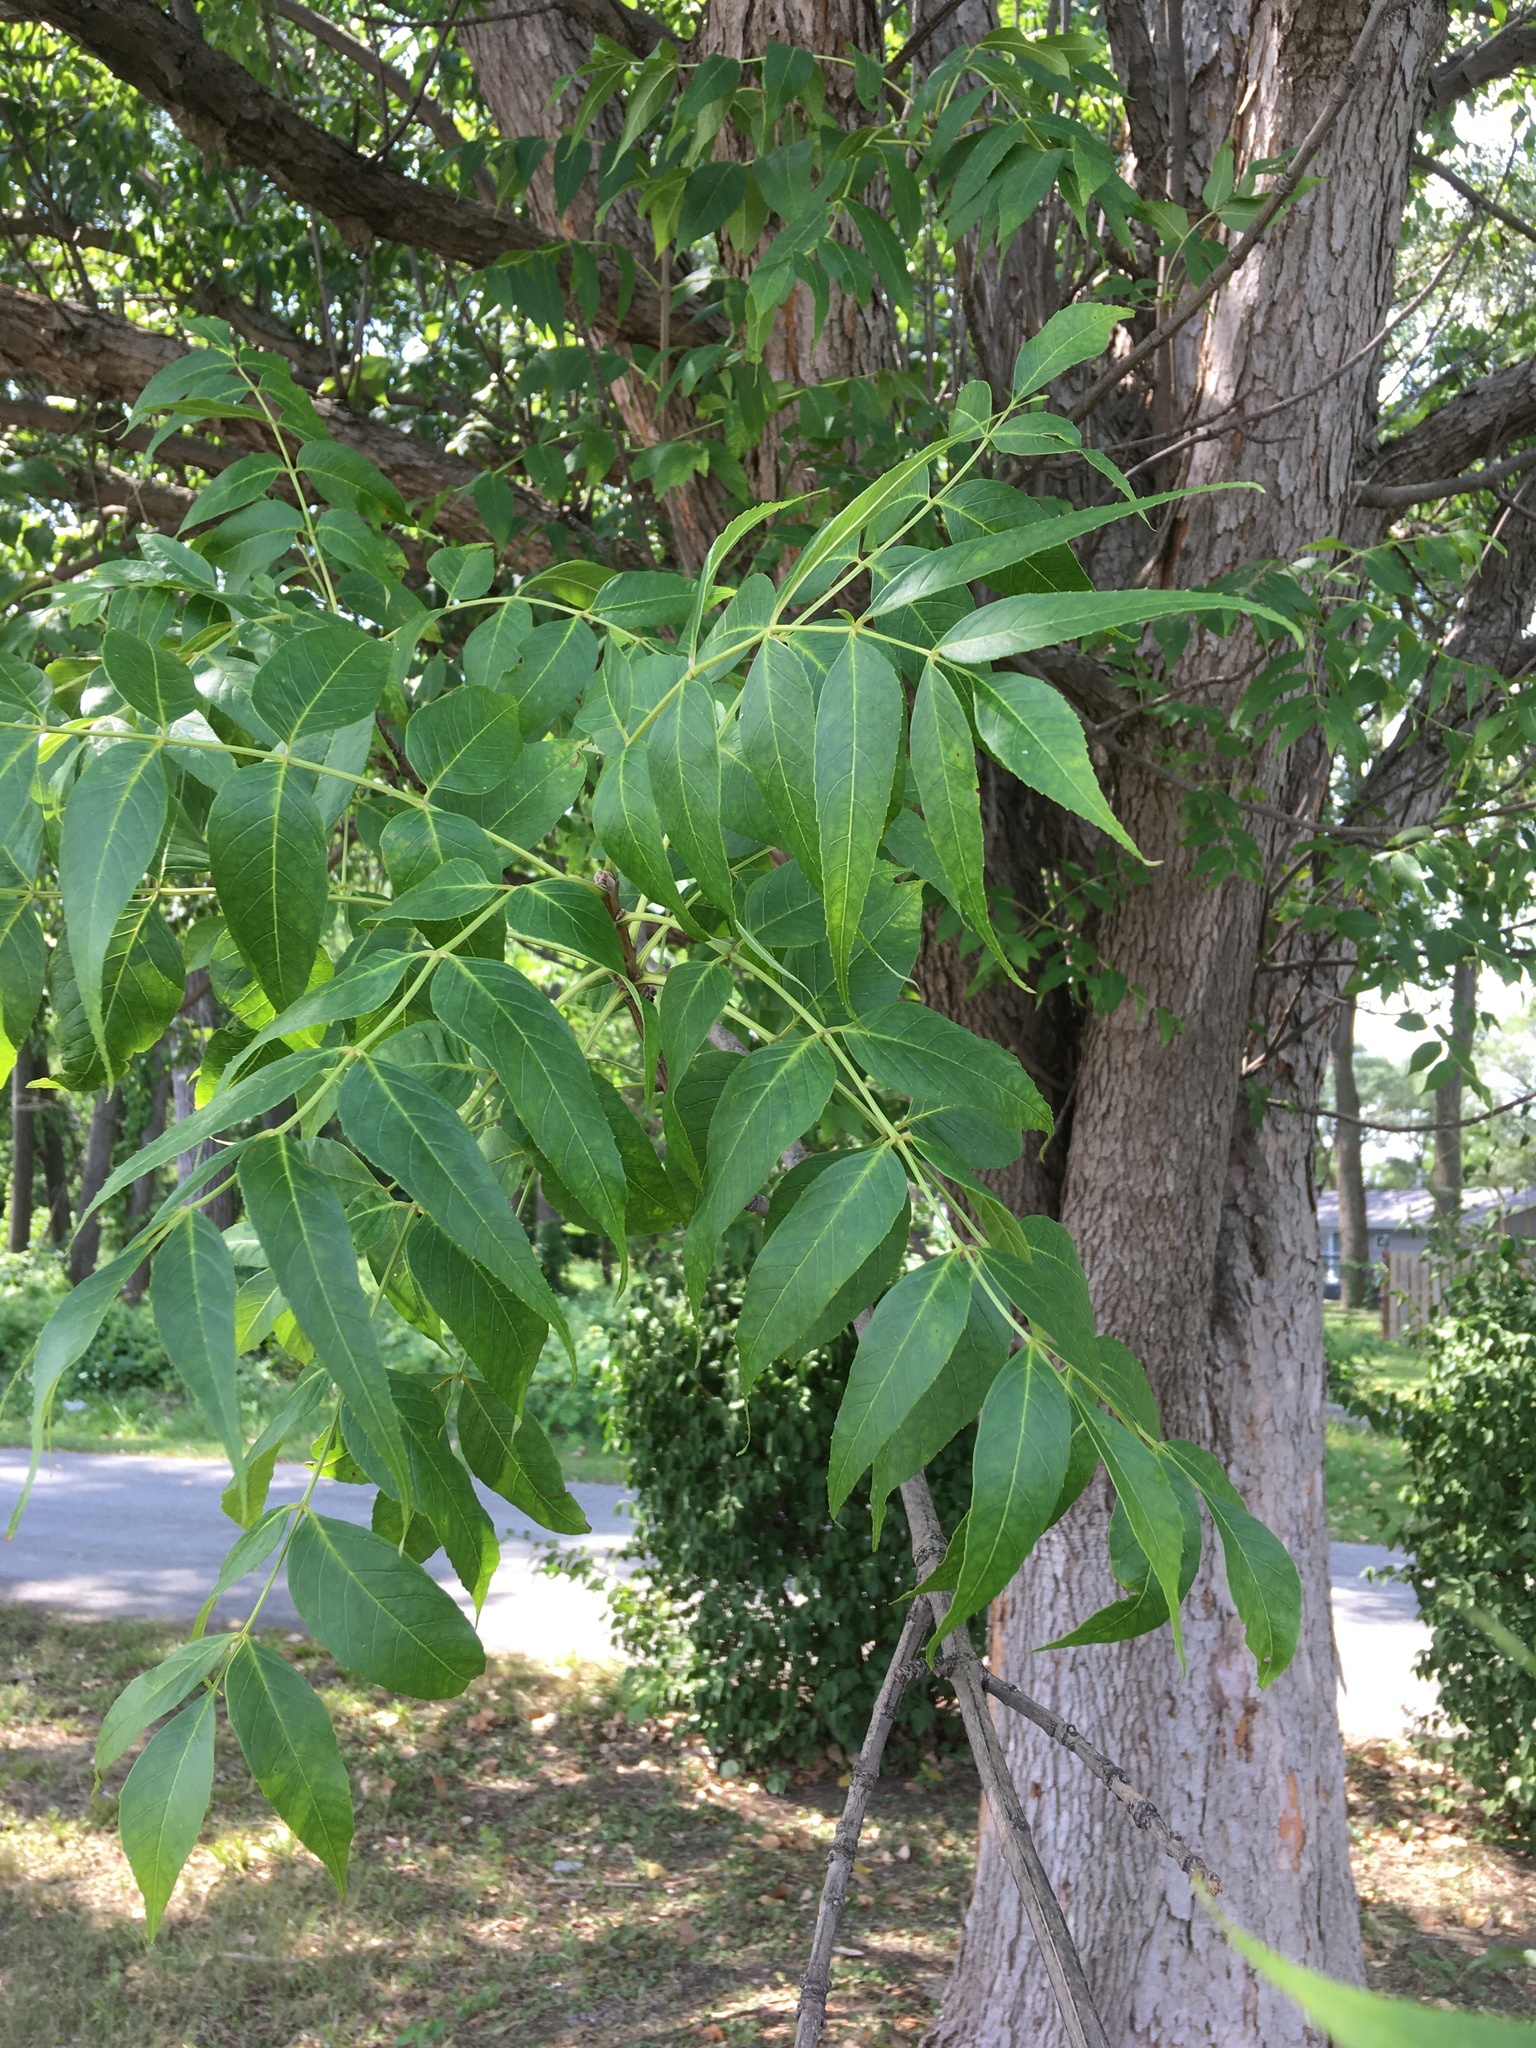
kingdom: Plantae
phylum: Tracheophyta
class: Magnoliopsida
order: Lamiales
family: Oleaceae
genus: Fraxinus
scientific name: Fraxinus quadrangulata
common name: Blue ash
